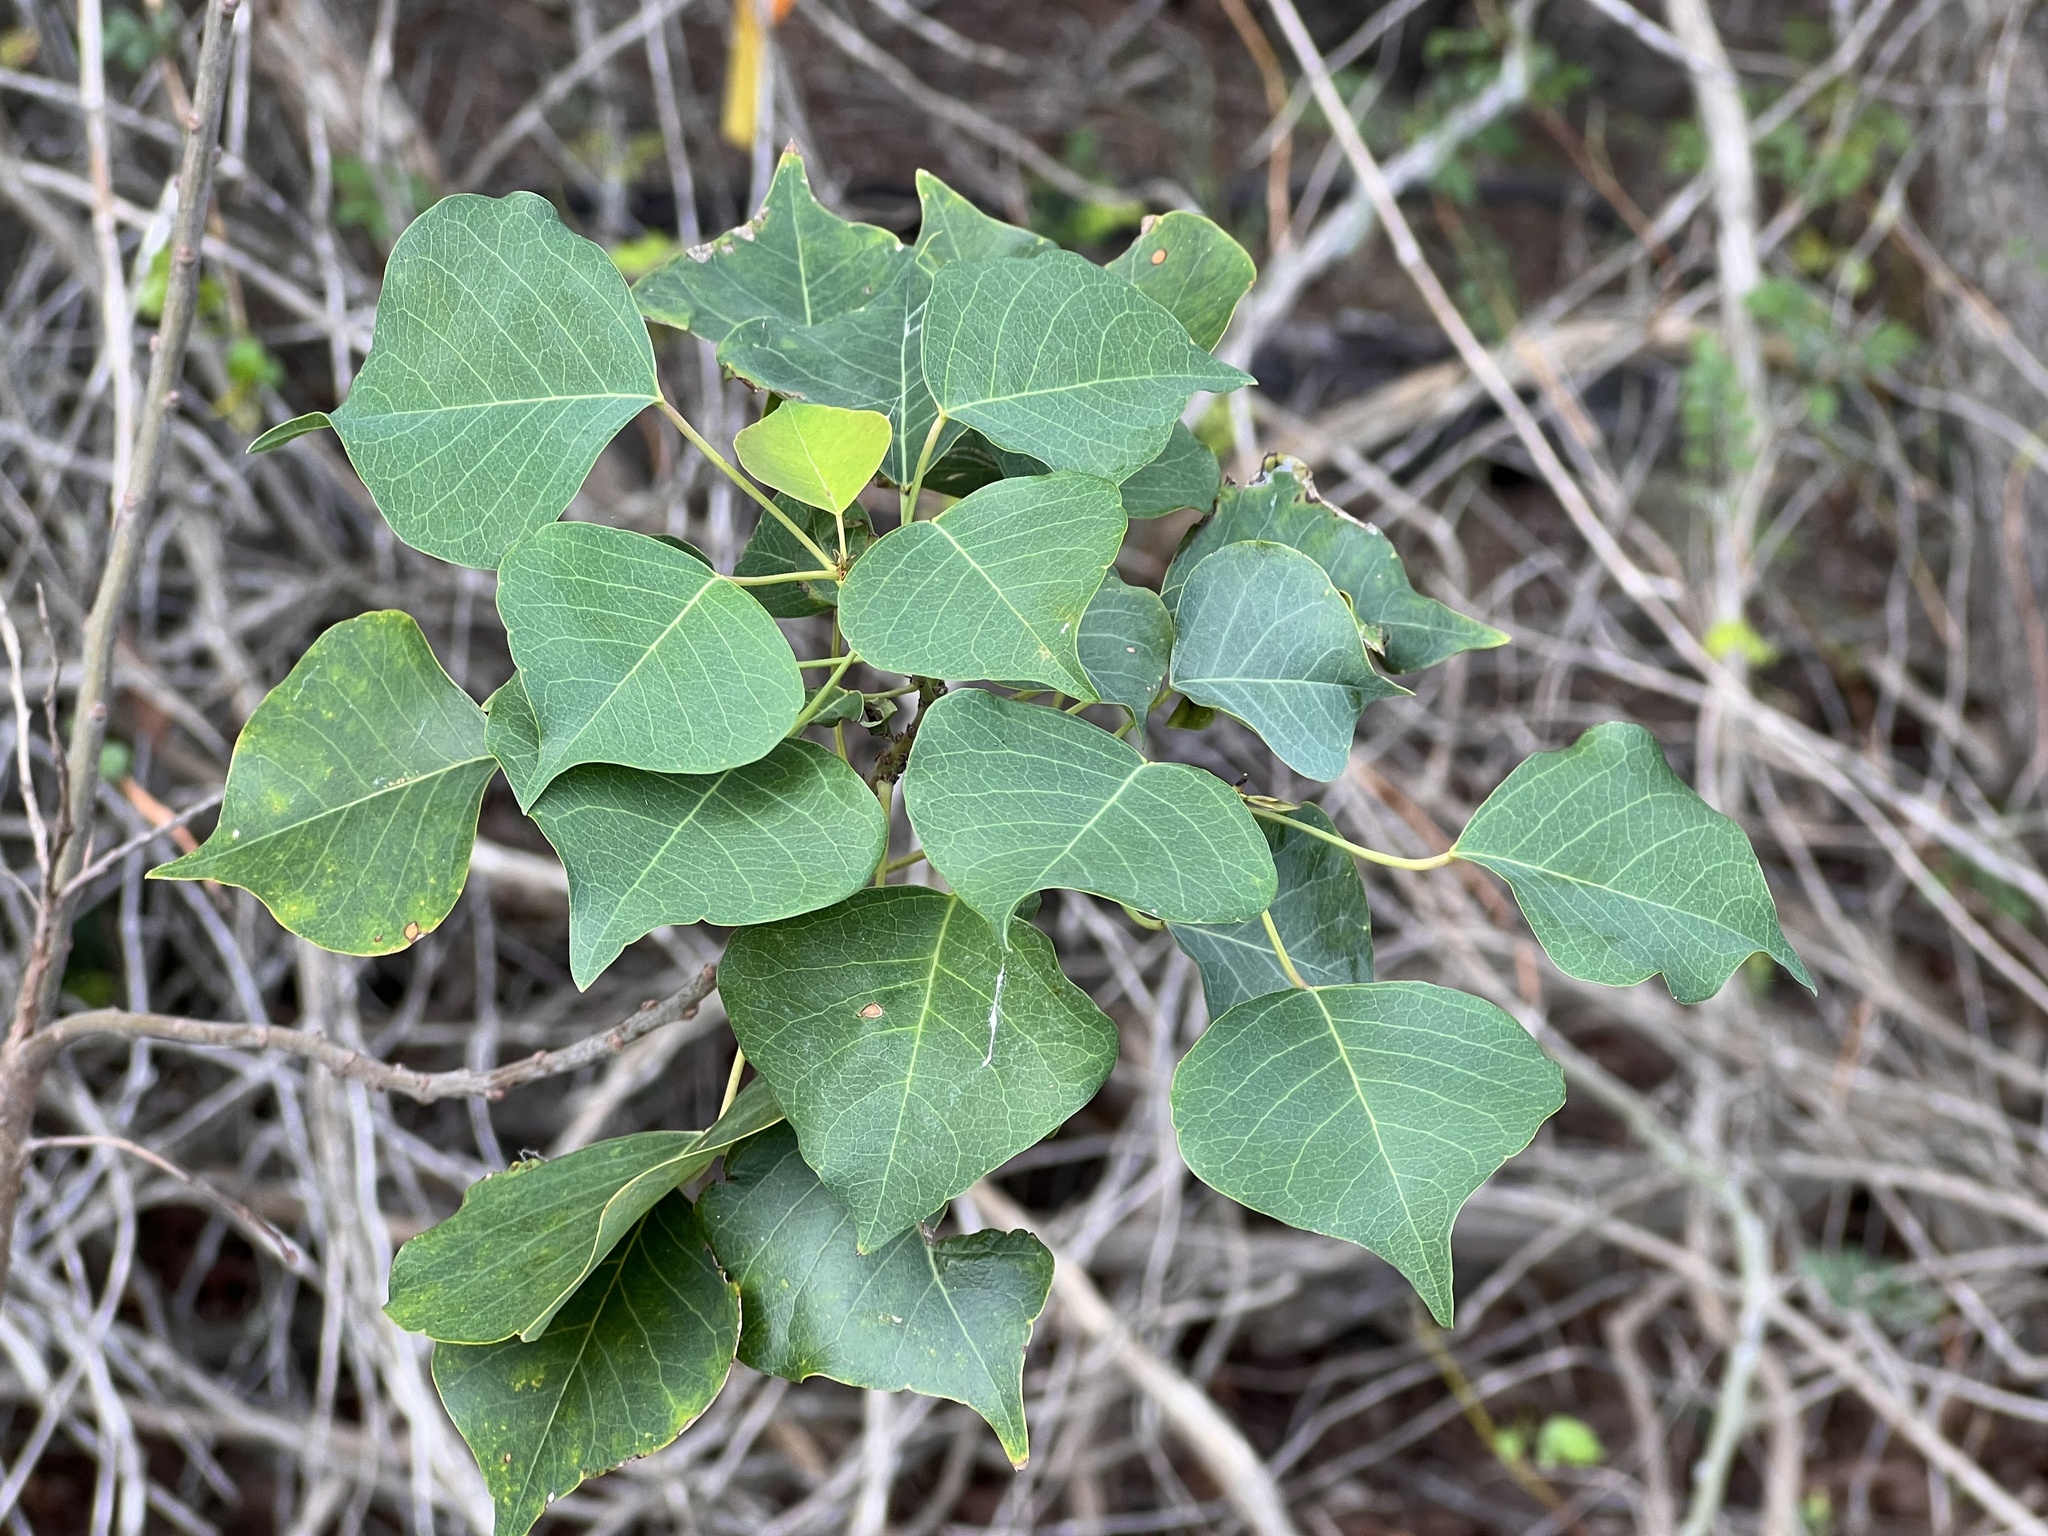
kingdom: Plantae
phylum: Tracheophyta
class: Magnoliopsida
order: Malpighiales
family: Euphorbiaceae
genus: Triadica
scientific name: Triadica sebifera
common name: Chinese tallow
